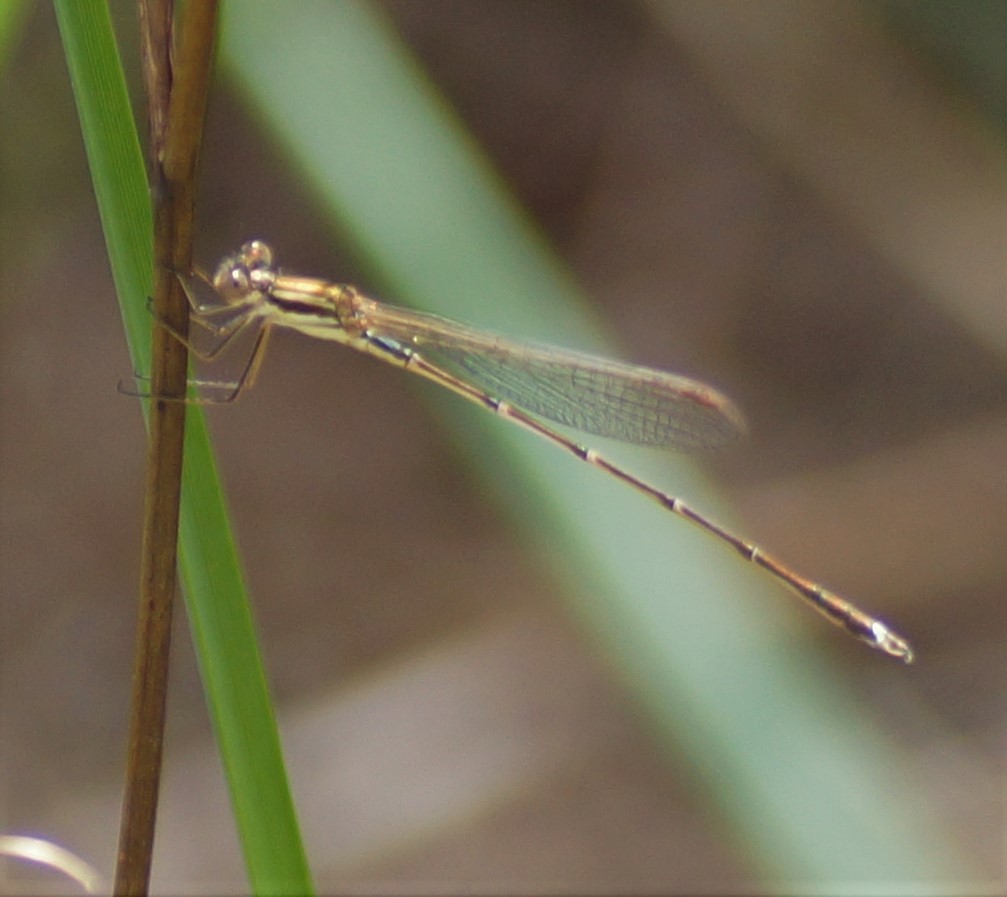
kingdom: Animalia
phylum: Arthropoda
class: Insecta
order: Odonata
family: Lestidae
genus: Austrolestes
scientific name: Austrolestes analis
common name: Slender ringtail
